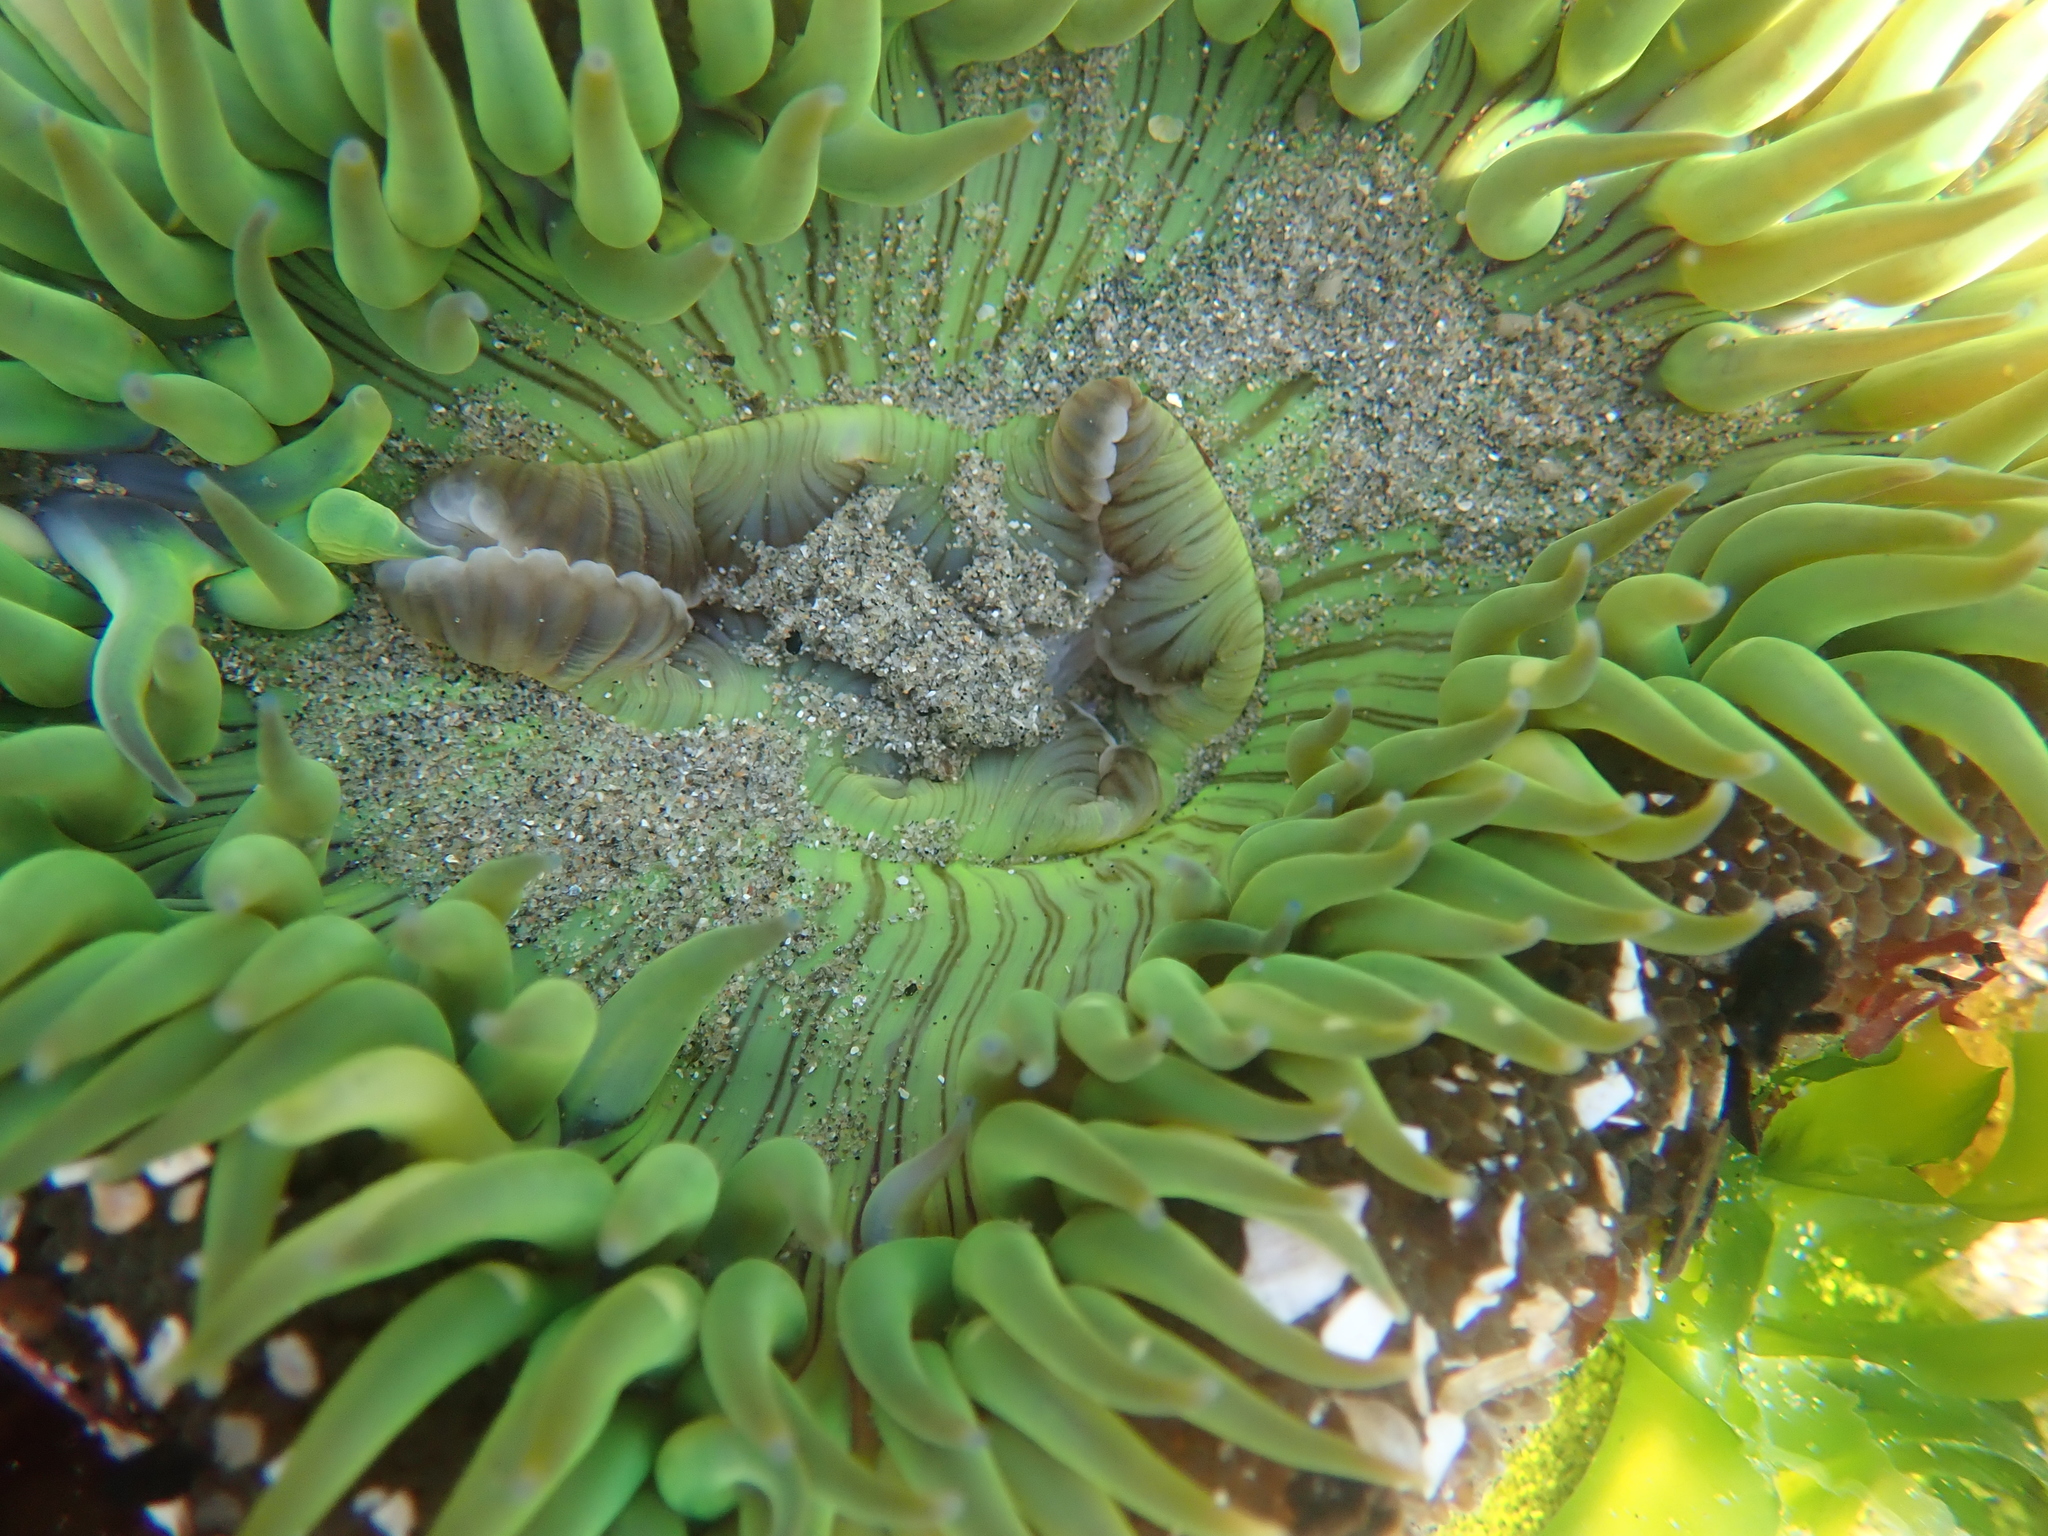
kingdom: Animalia
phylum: Cnidaria
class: Anthozoa
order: Actiniaria
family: Actiniidae
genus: Anthopleura
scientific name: Anthopleura sola
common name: Sun anemone
